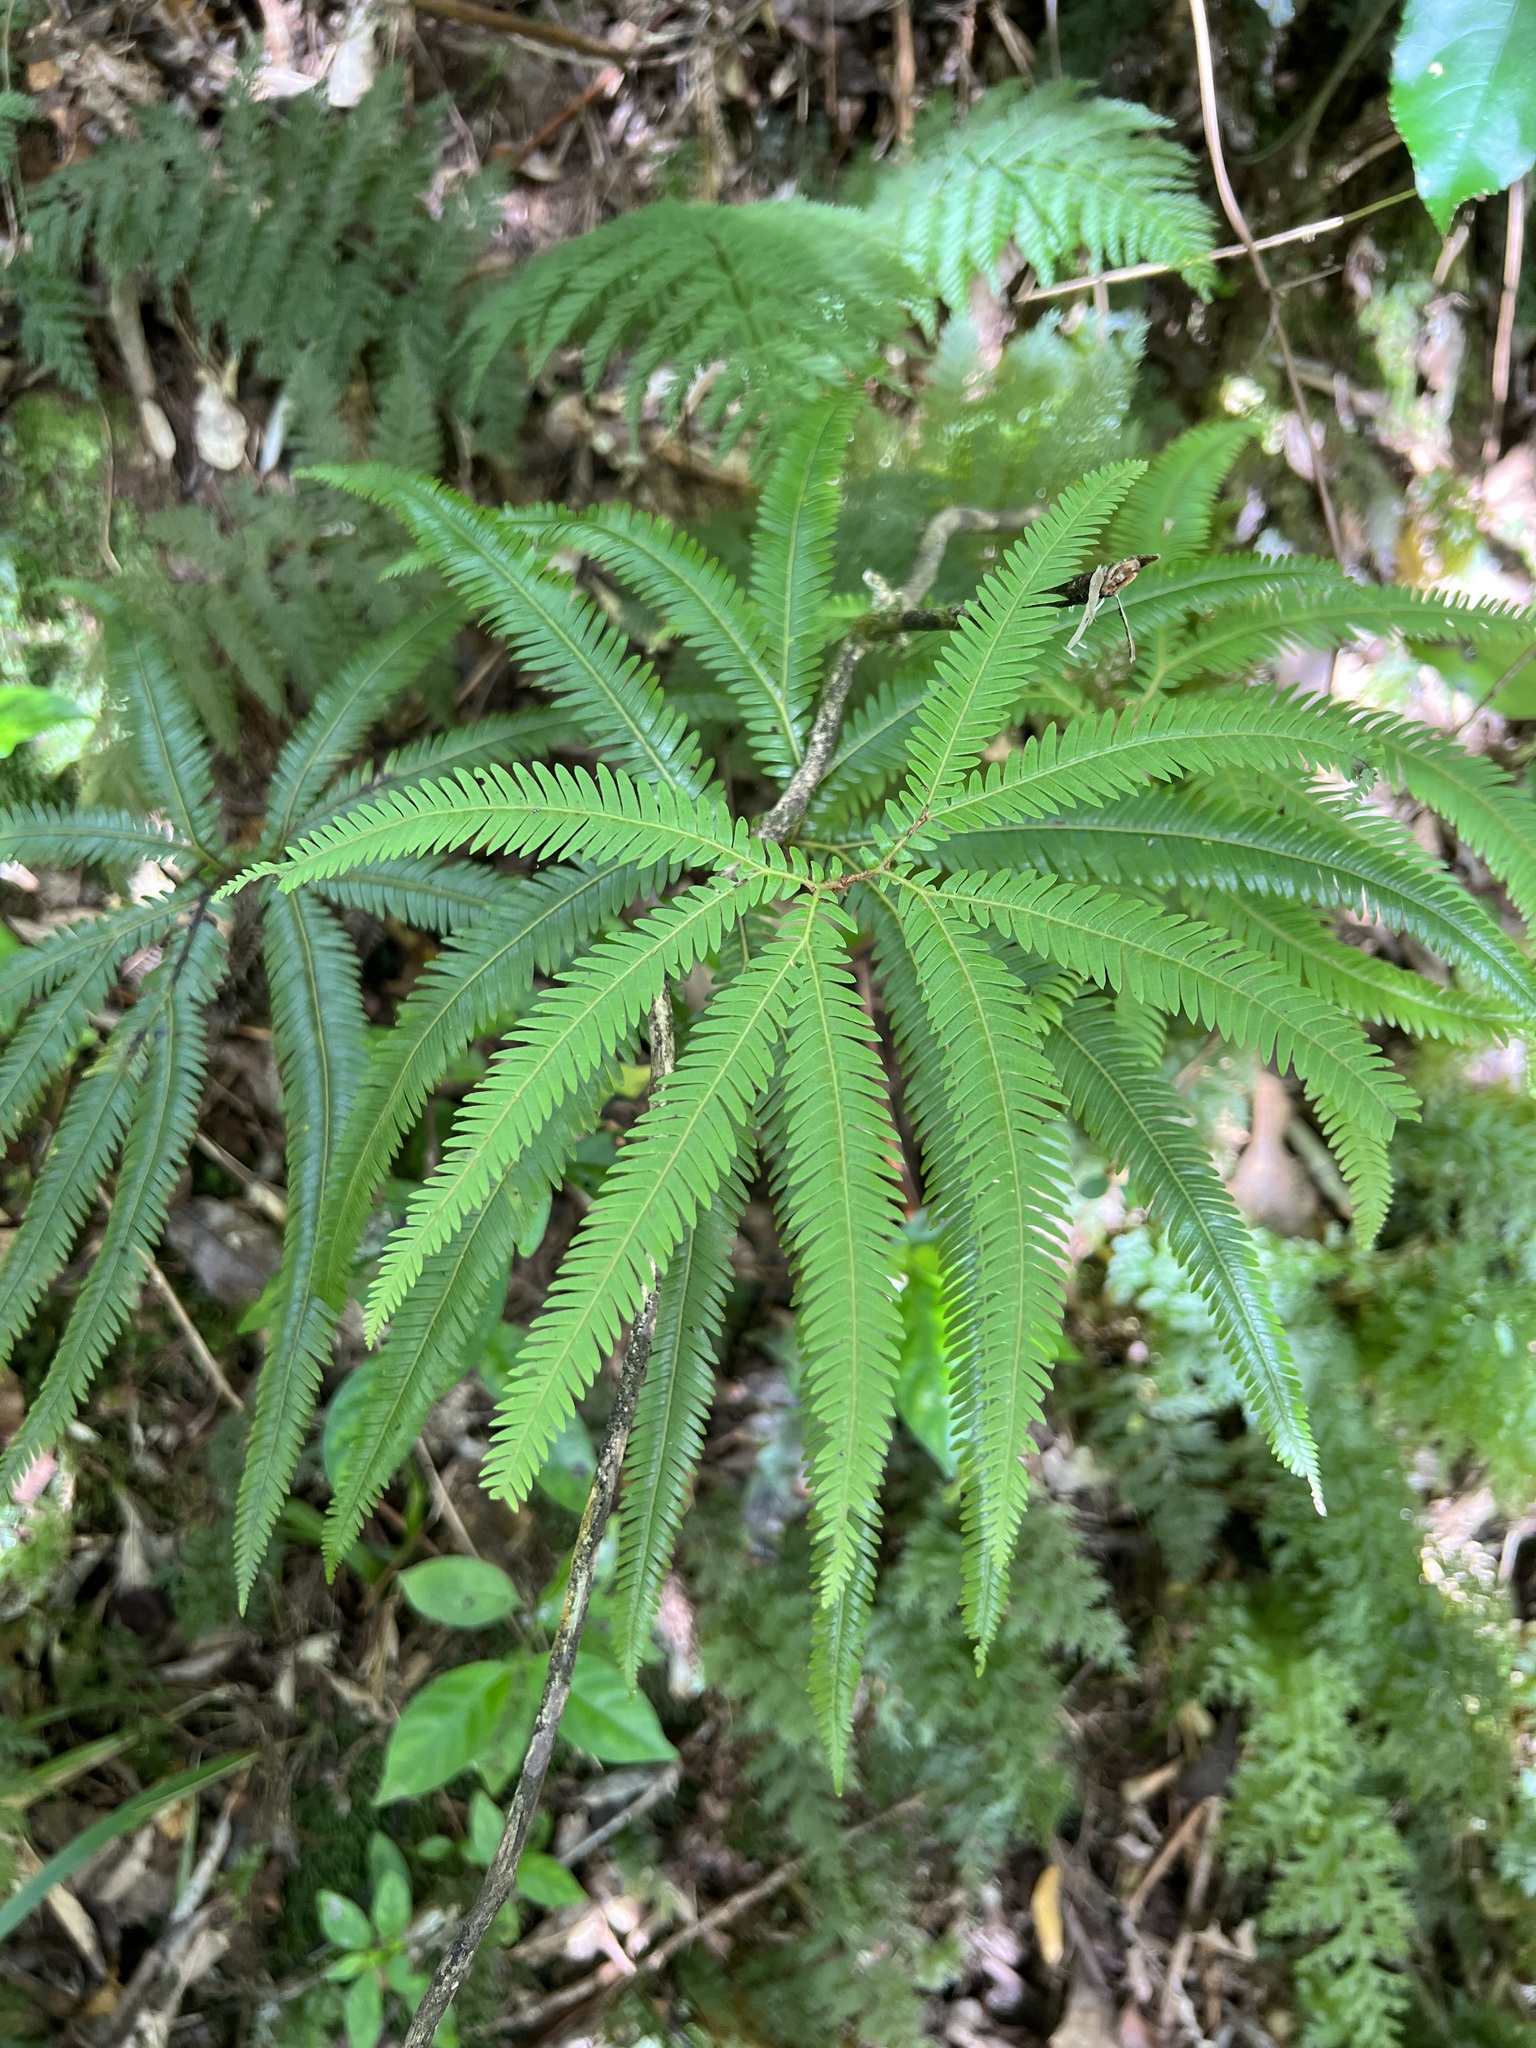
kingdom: Plantae
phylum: Tracheophyta
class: Polypodiopsida
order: Gleicheniales
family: Gleicheniaceae
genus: Sticherus
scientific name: Sticherus cunninghamii
